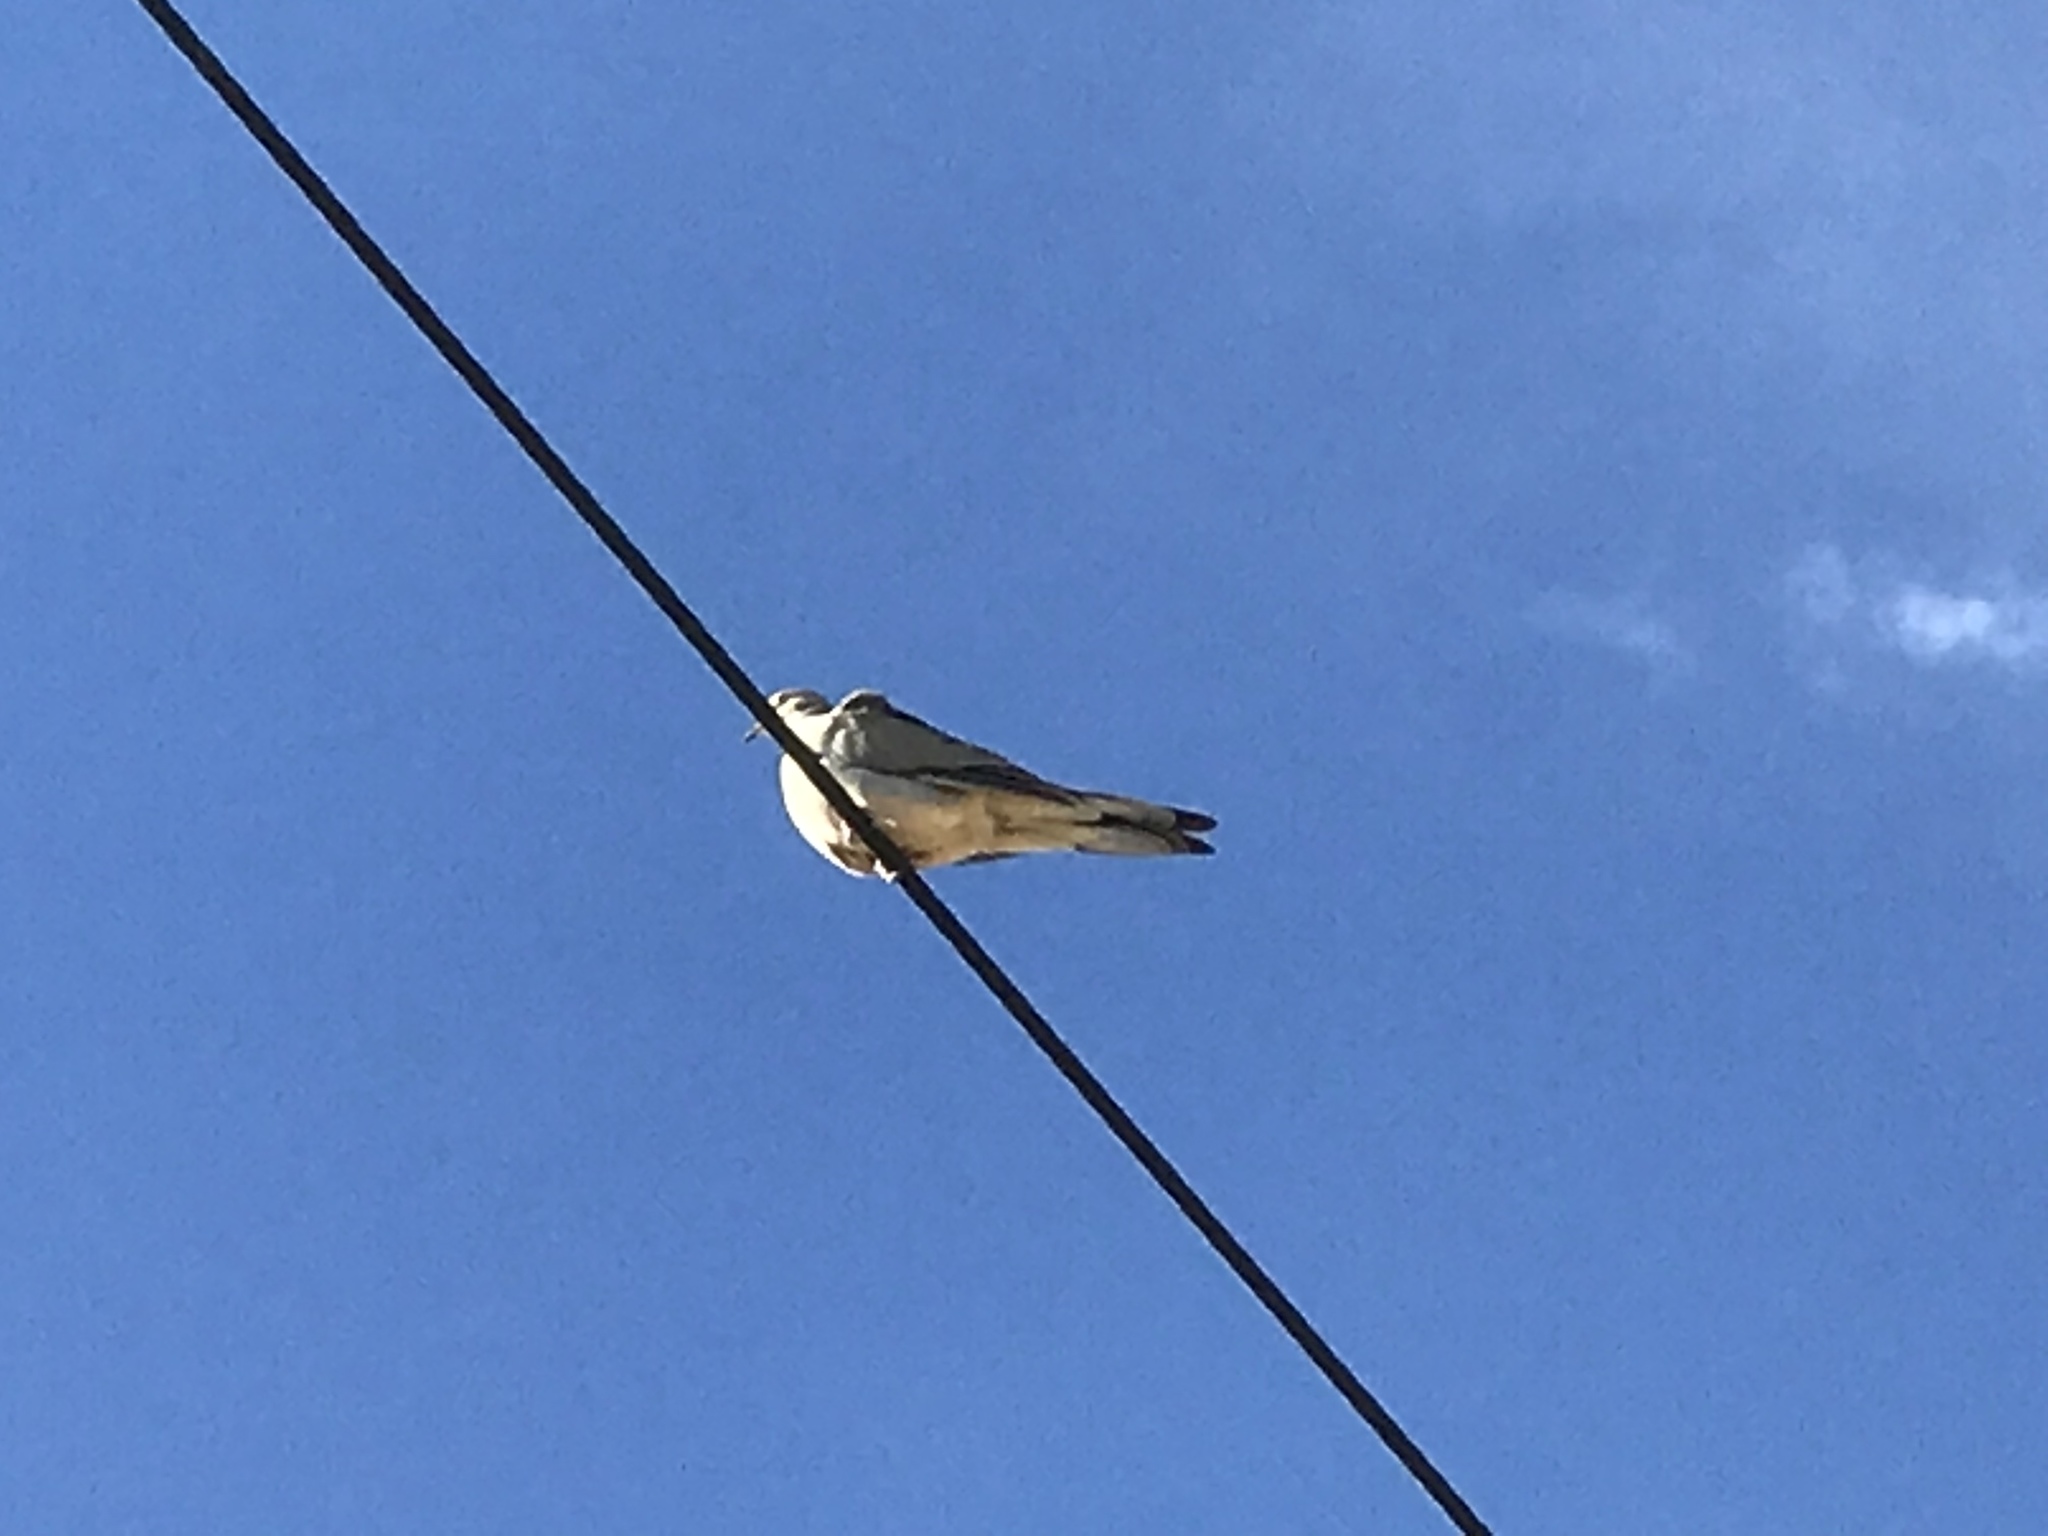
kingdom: Animalia
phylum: Chordata
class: Aves
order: Columbiformes
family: Columbidae
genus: Zenaida
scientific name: Zenaida macroura
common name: Mourning dove
